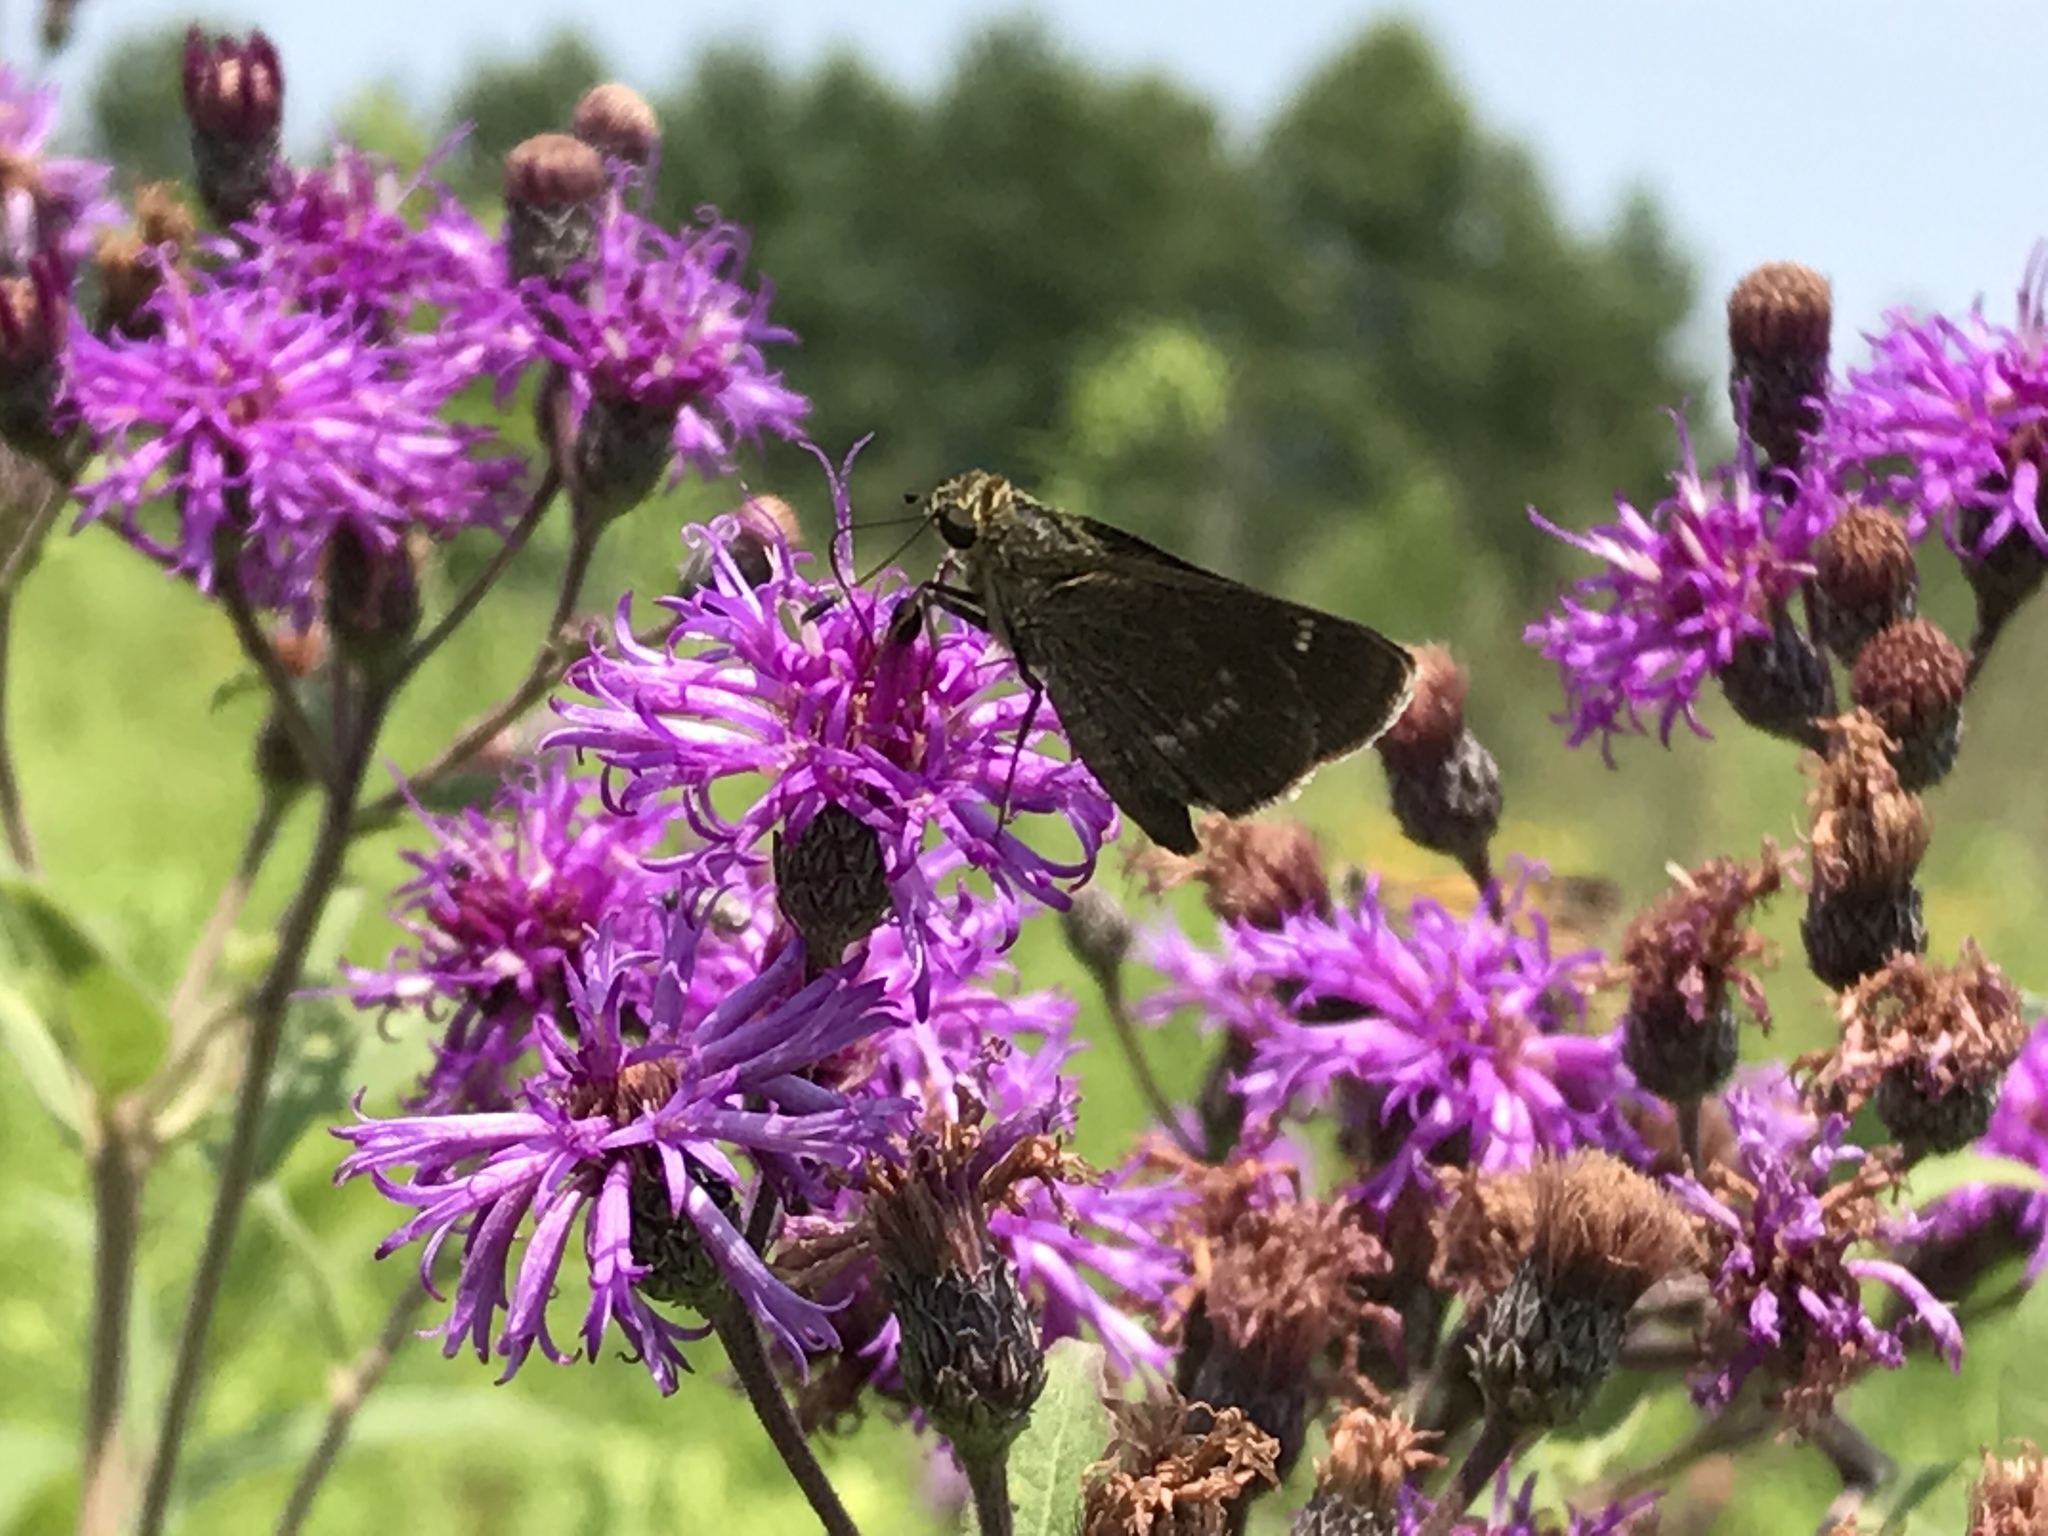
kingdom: Animalia
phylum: Arthropoda
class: Insecta
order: Lepidoptera
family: Hesperiidae
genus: Vernia
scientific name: Vernia verna
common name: Little glassywing
